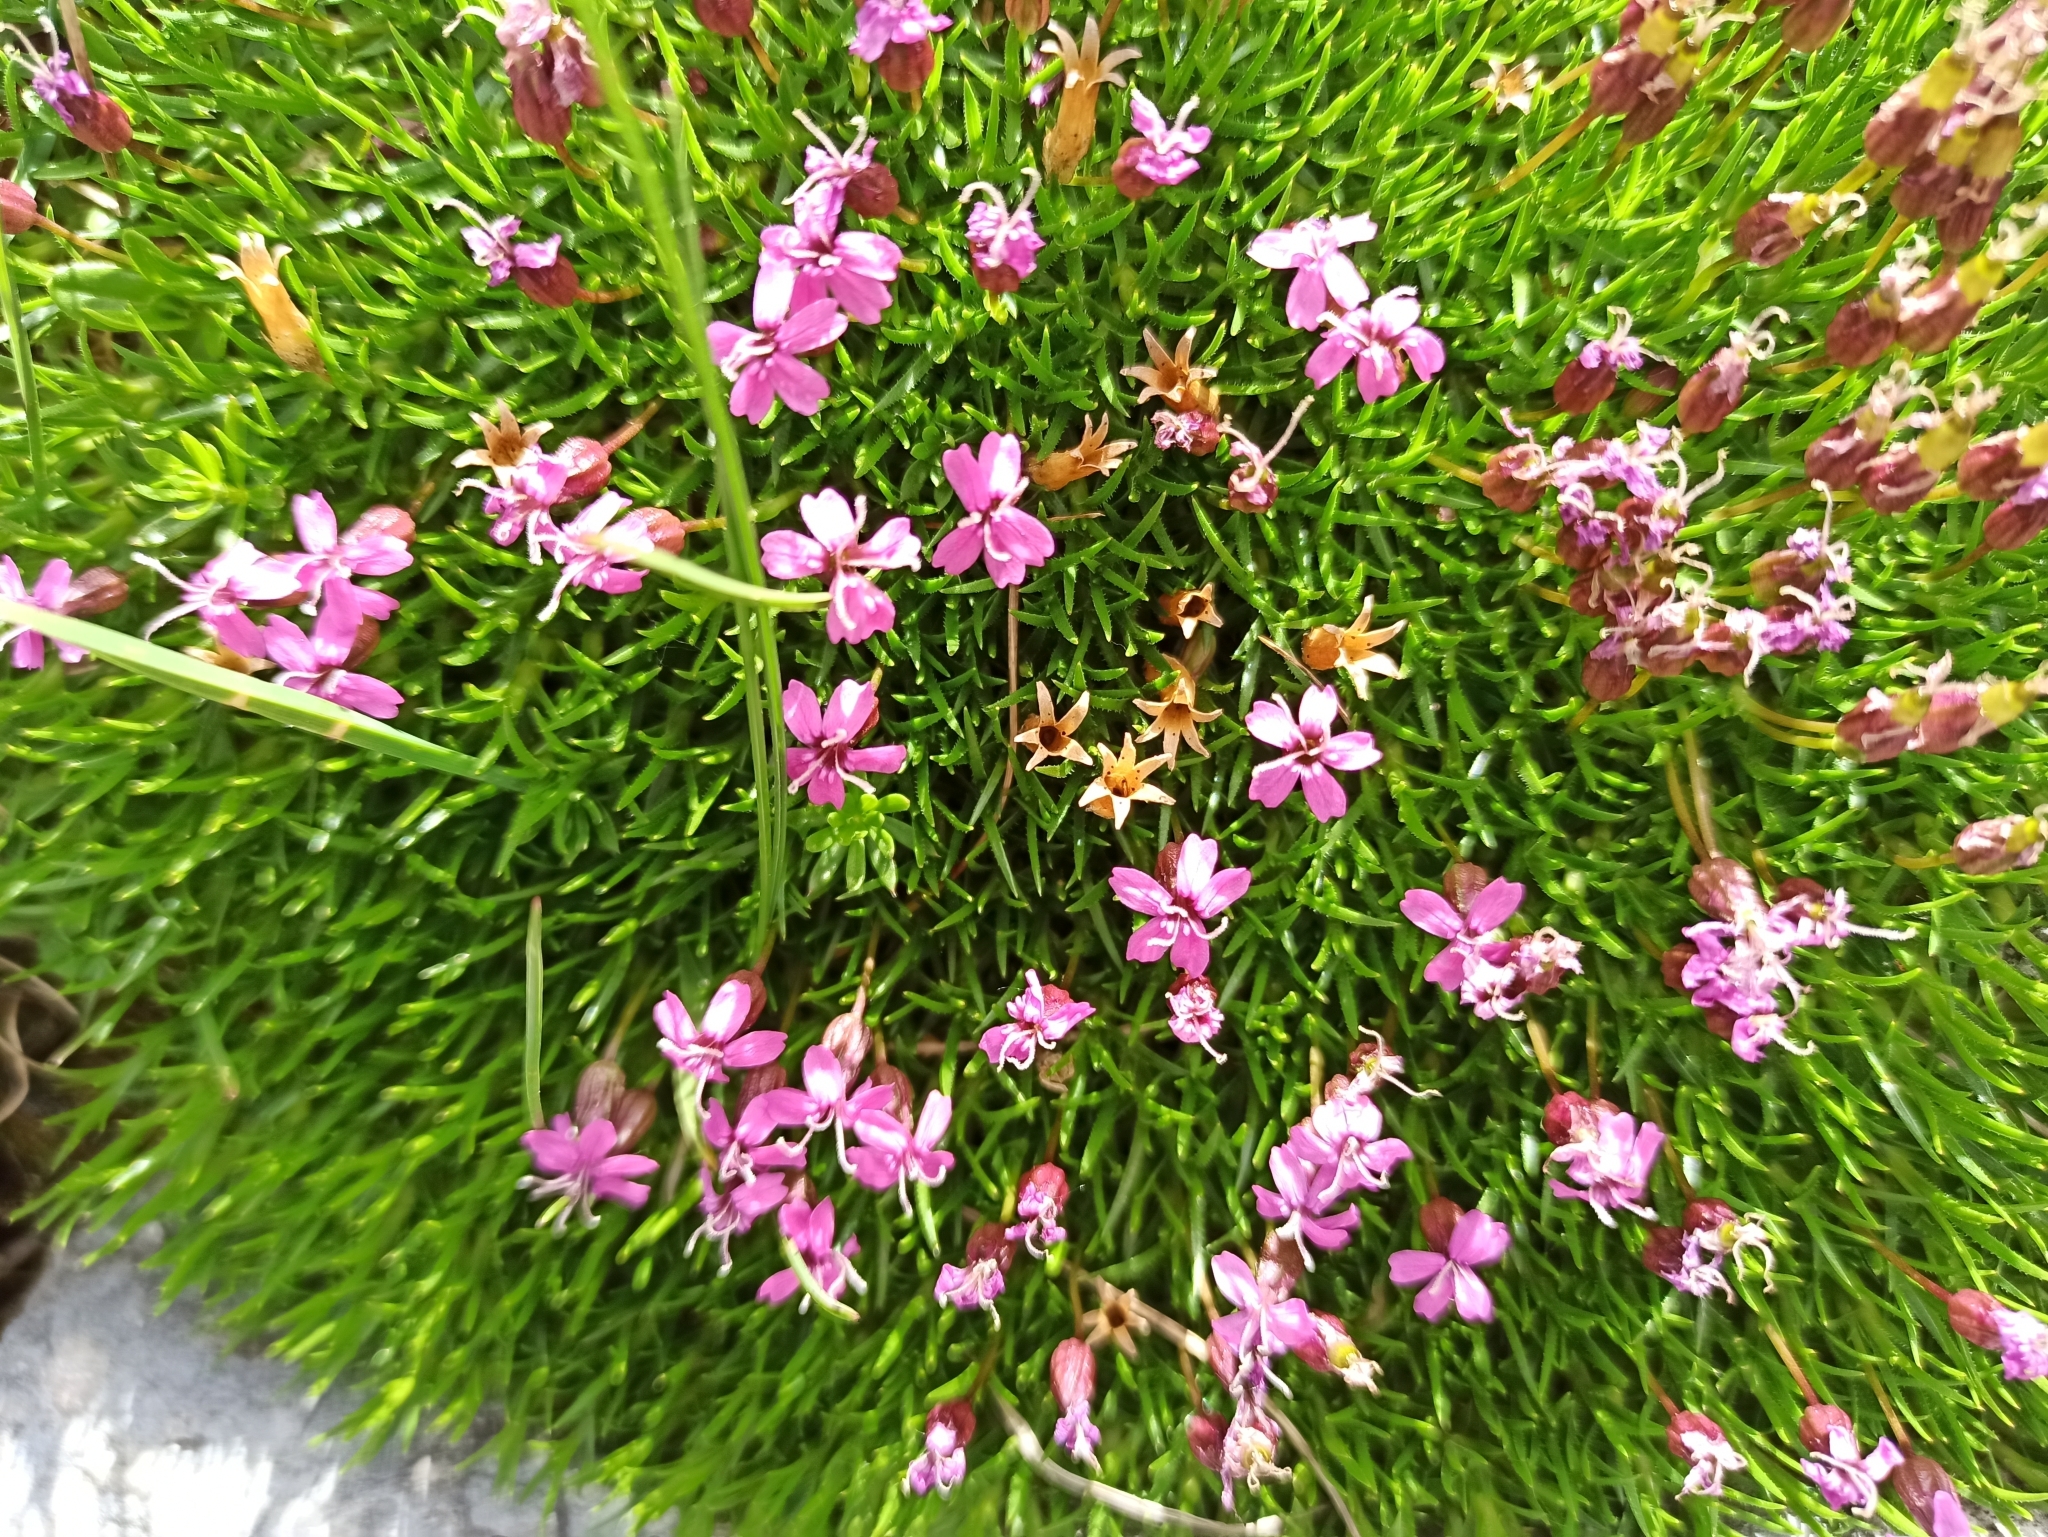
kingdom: Plantae
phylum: Tracheophyta
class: Magnoliopsida
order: Caryophyllales
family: Caryophyllaceae
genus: Silene
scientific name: Silene acaulis
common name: Moss campion
